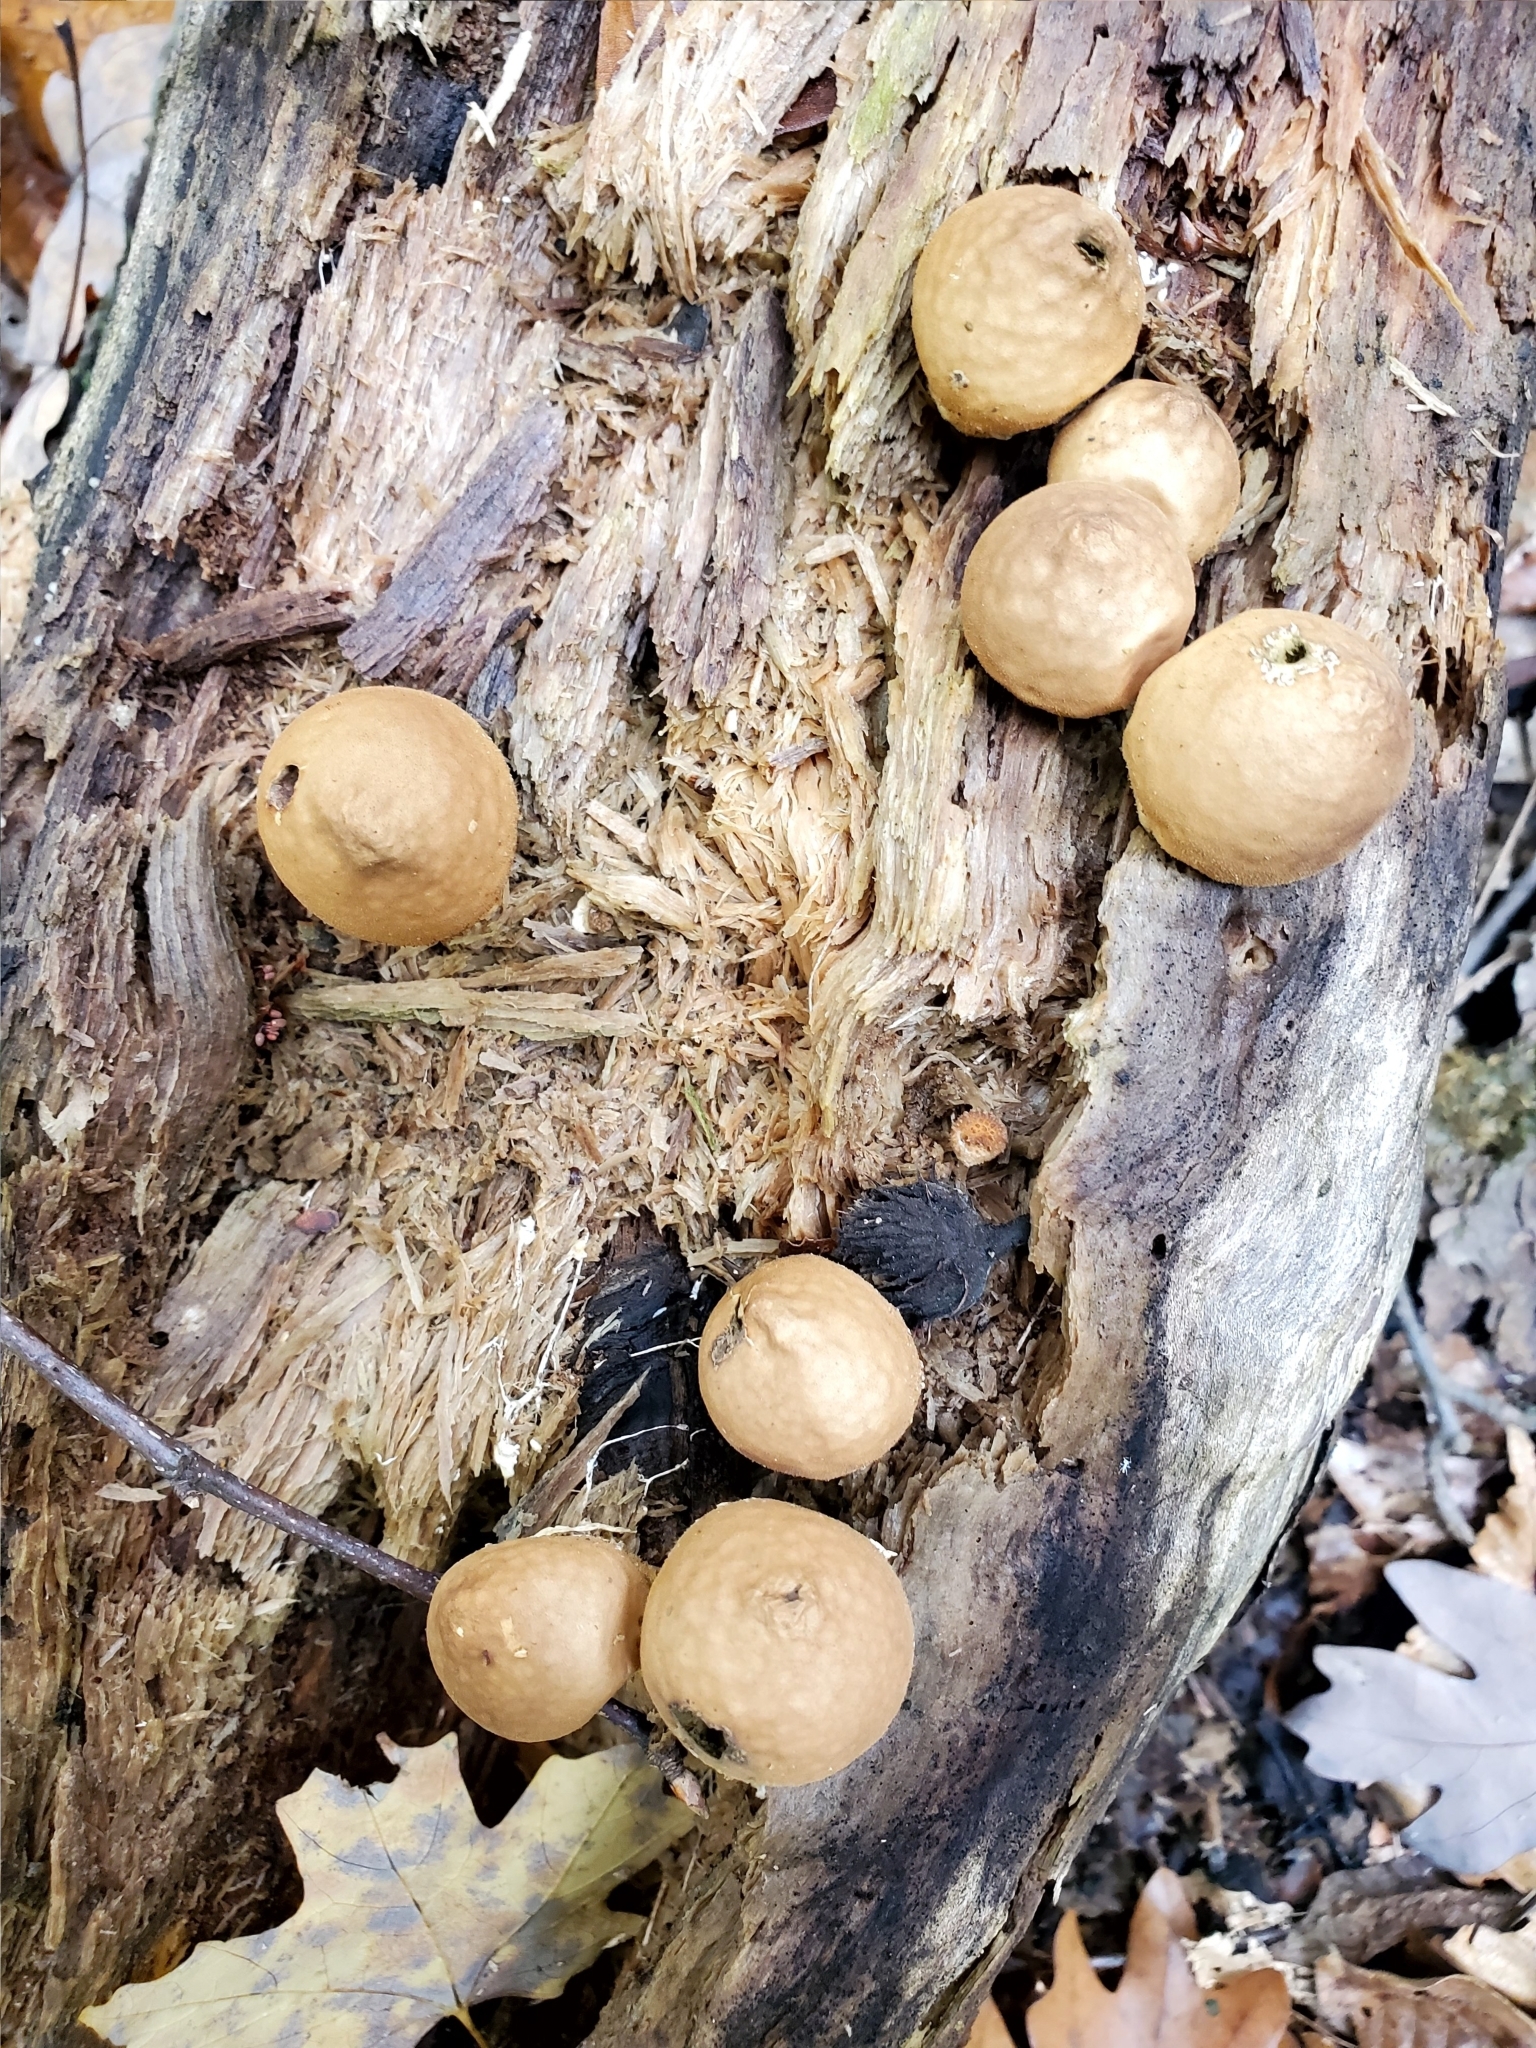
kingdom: Fungi
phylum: Basidiomycota
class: Agaricomycetes
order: Agaricales
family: Lycoperdaceae
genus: Apioperdon
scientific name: Apioperdon pyriforme
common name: Pear-shaped puffball
